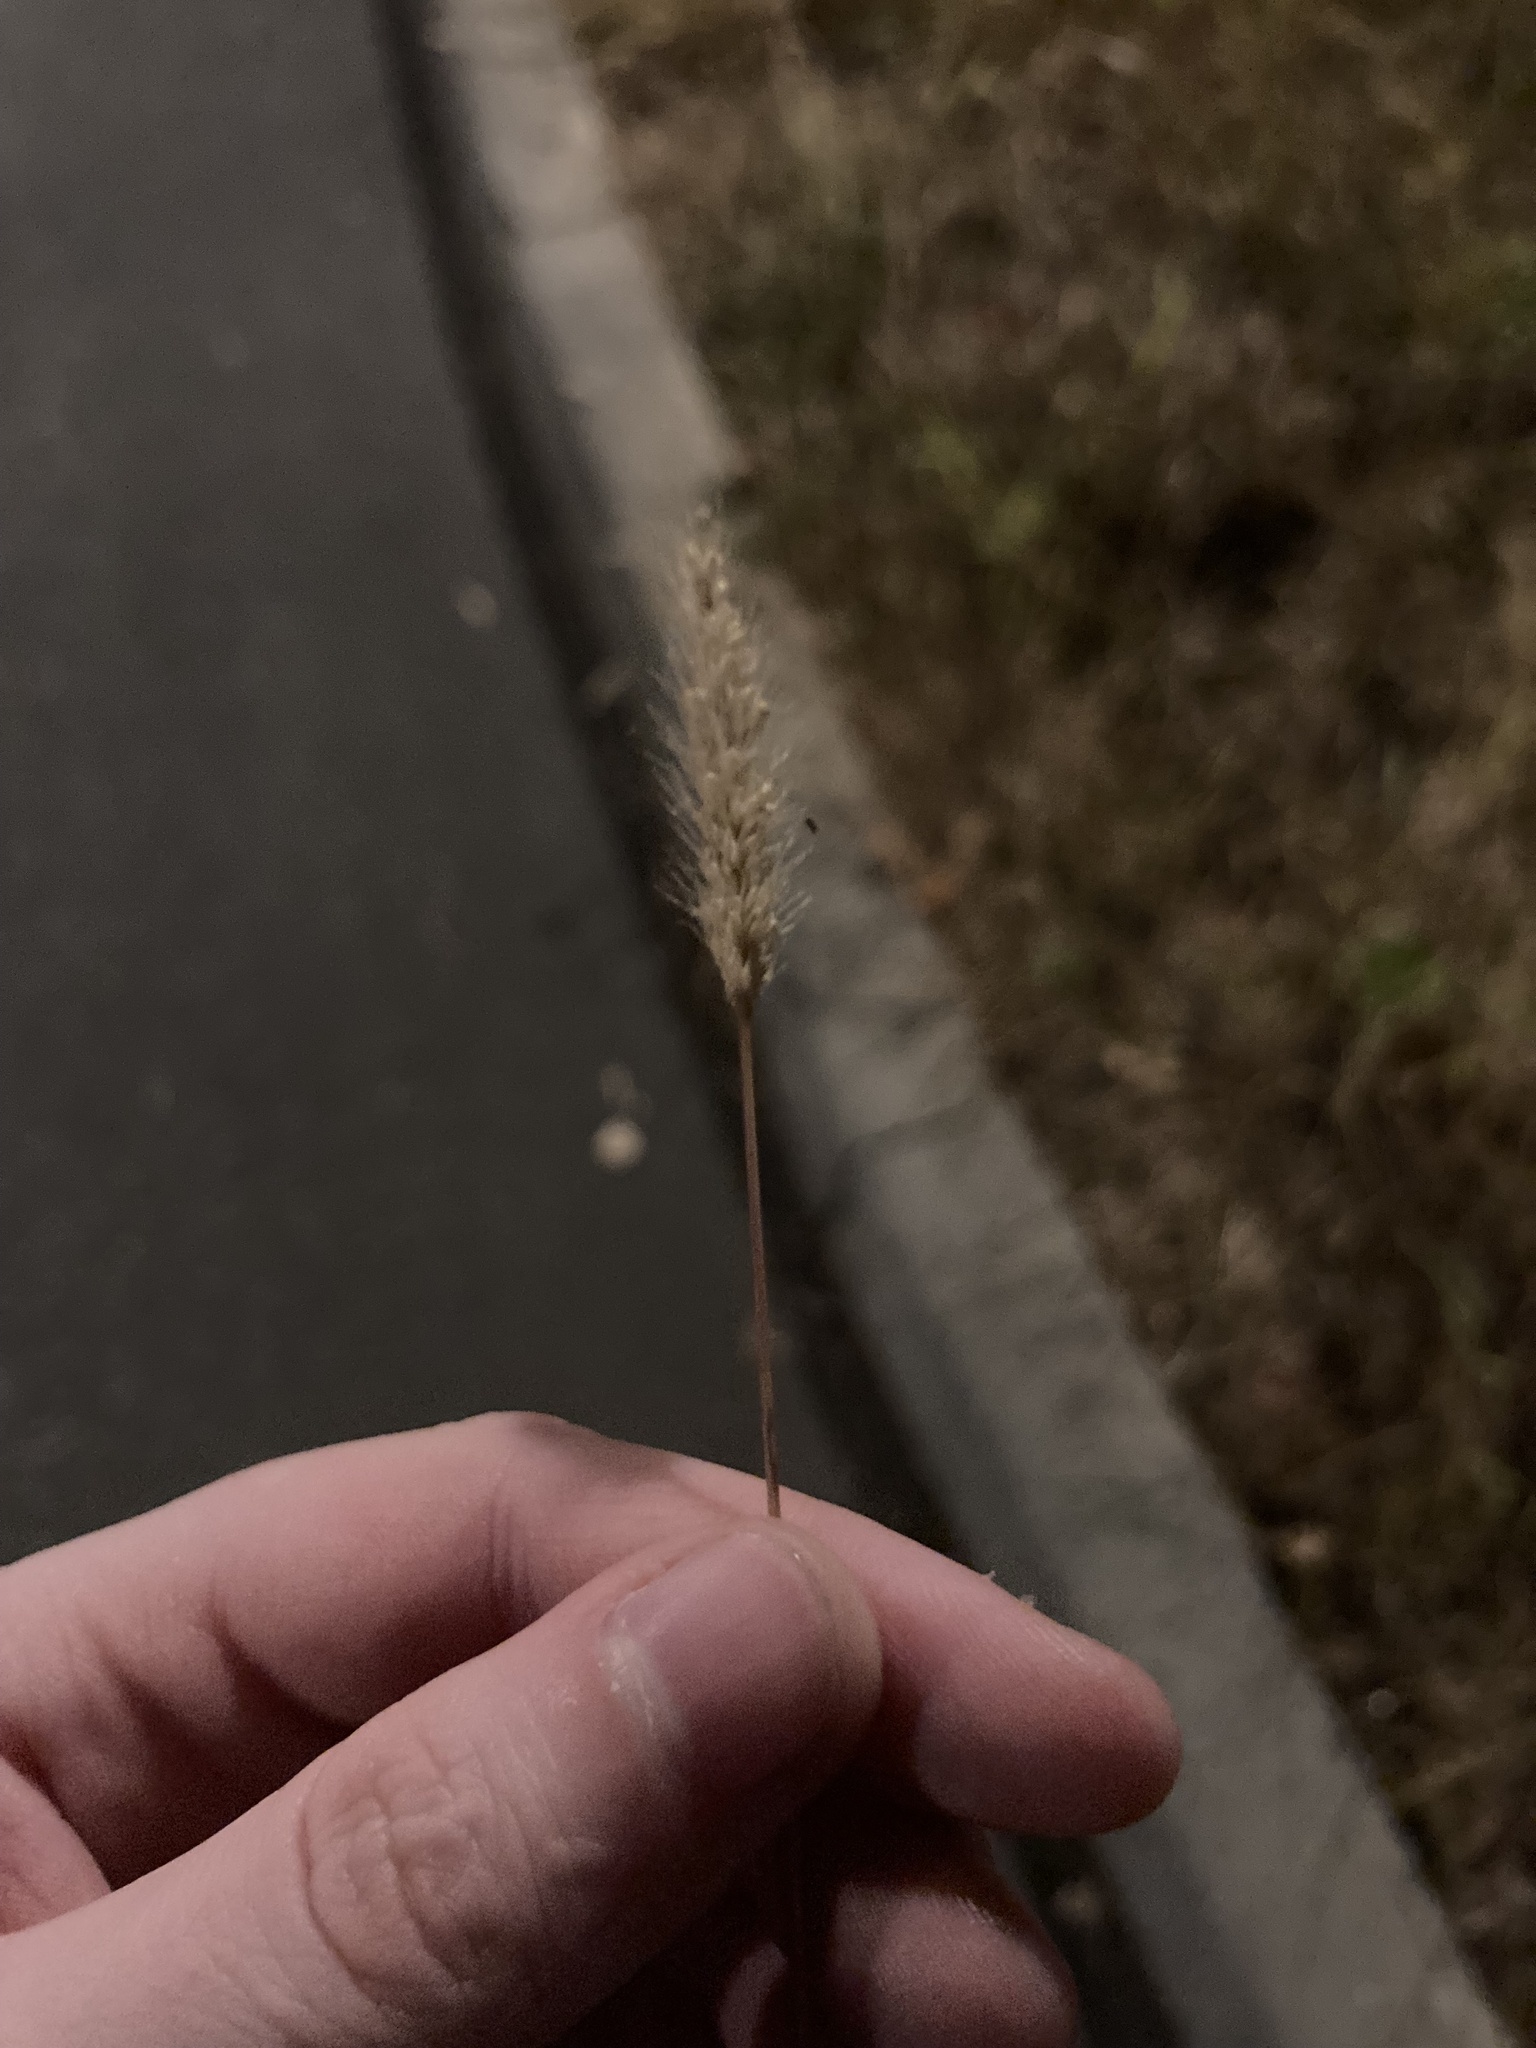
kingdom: Plantae
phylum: Tracheophyta
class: Liliopsida
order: Poales
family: Poaceae
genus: Setaria
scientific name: Setaria viridis
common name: Green bristlegrass
